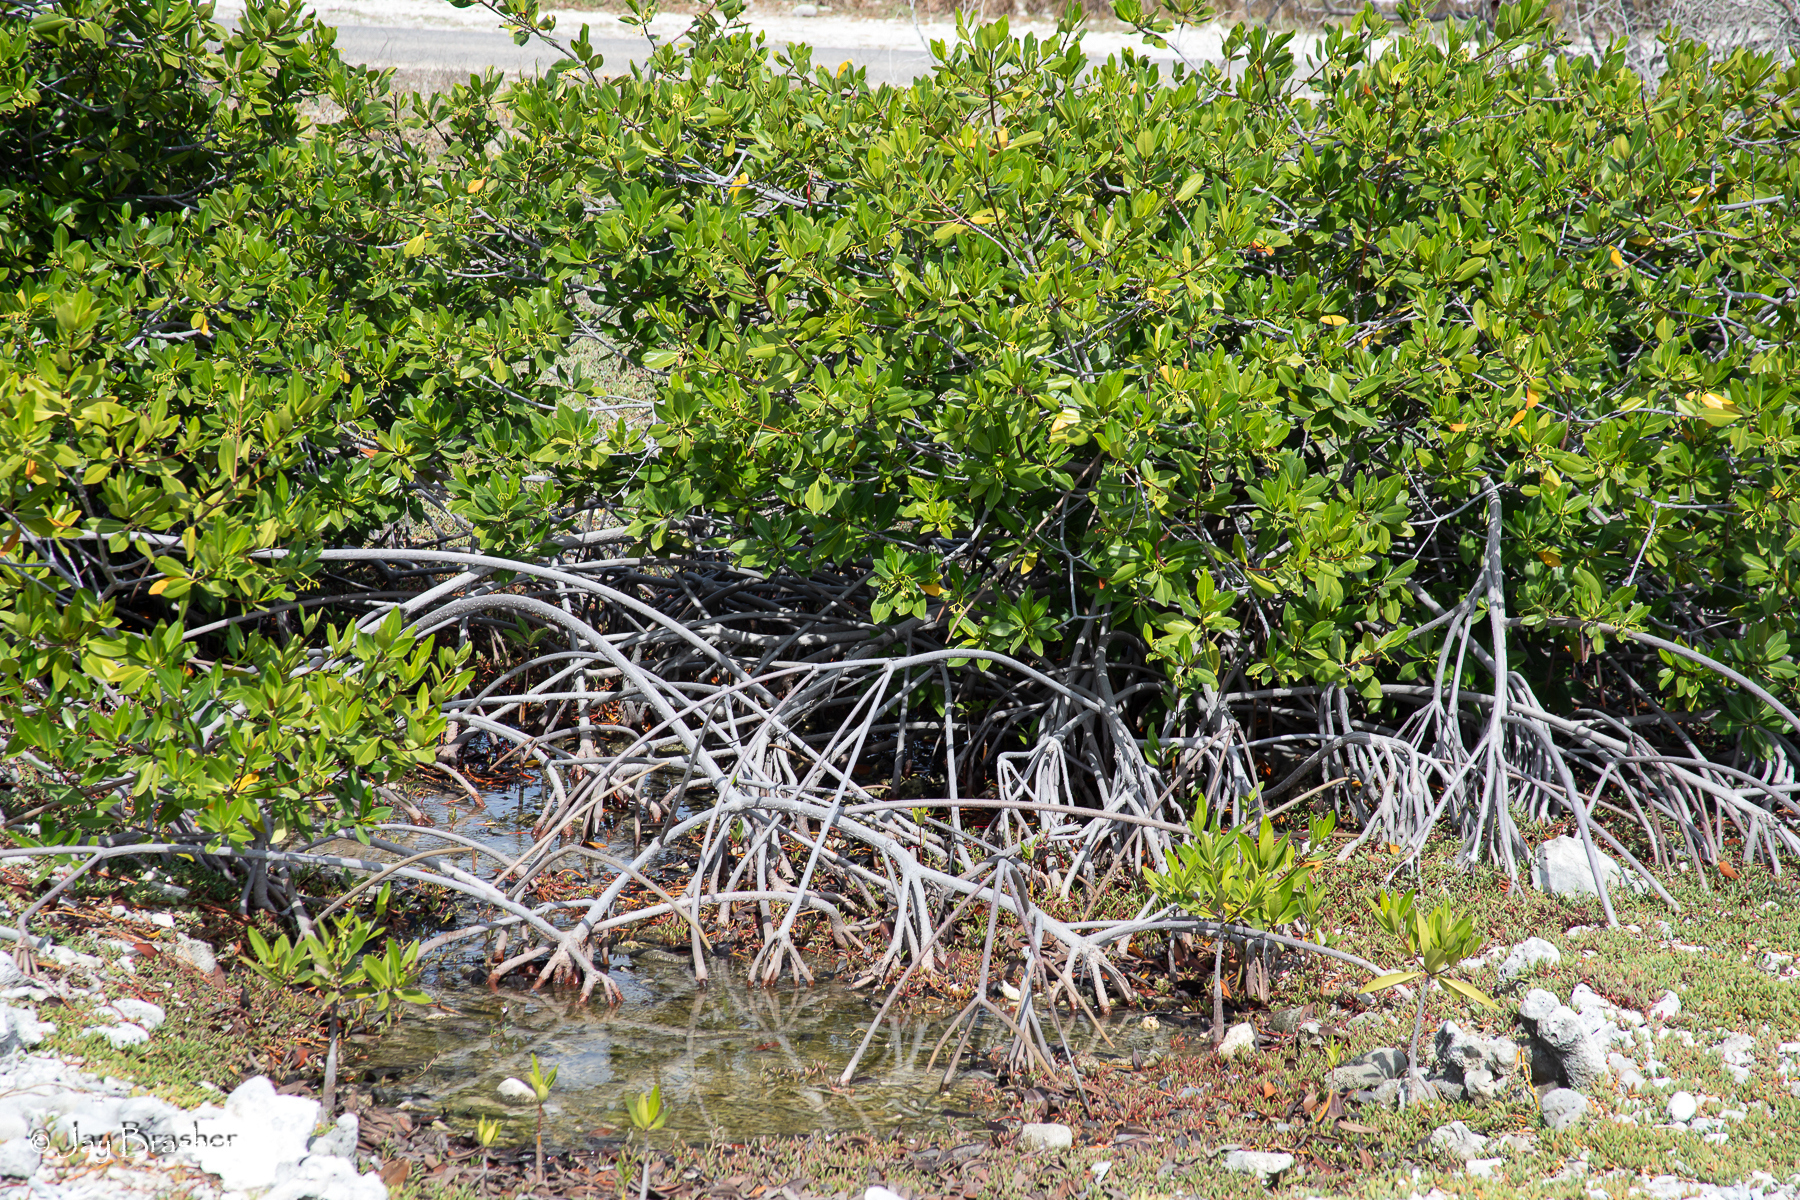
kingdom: Plantae
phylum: Tracheophyta
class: Magnoliopsida
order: Malpighiales
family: Rhizophoraceae
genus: Rhizophora
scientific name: Rhizophora mangle
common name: Red mangrove
